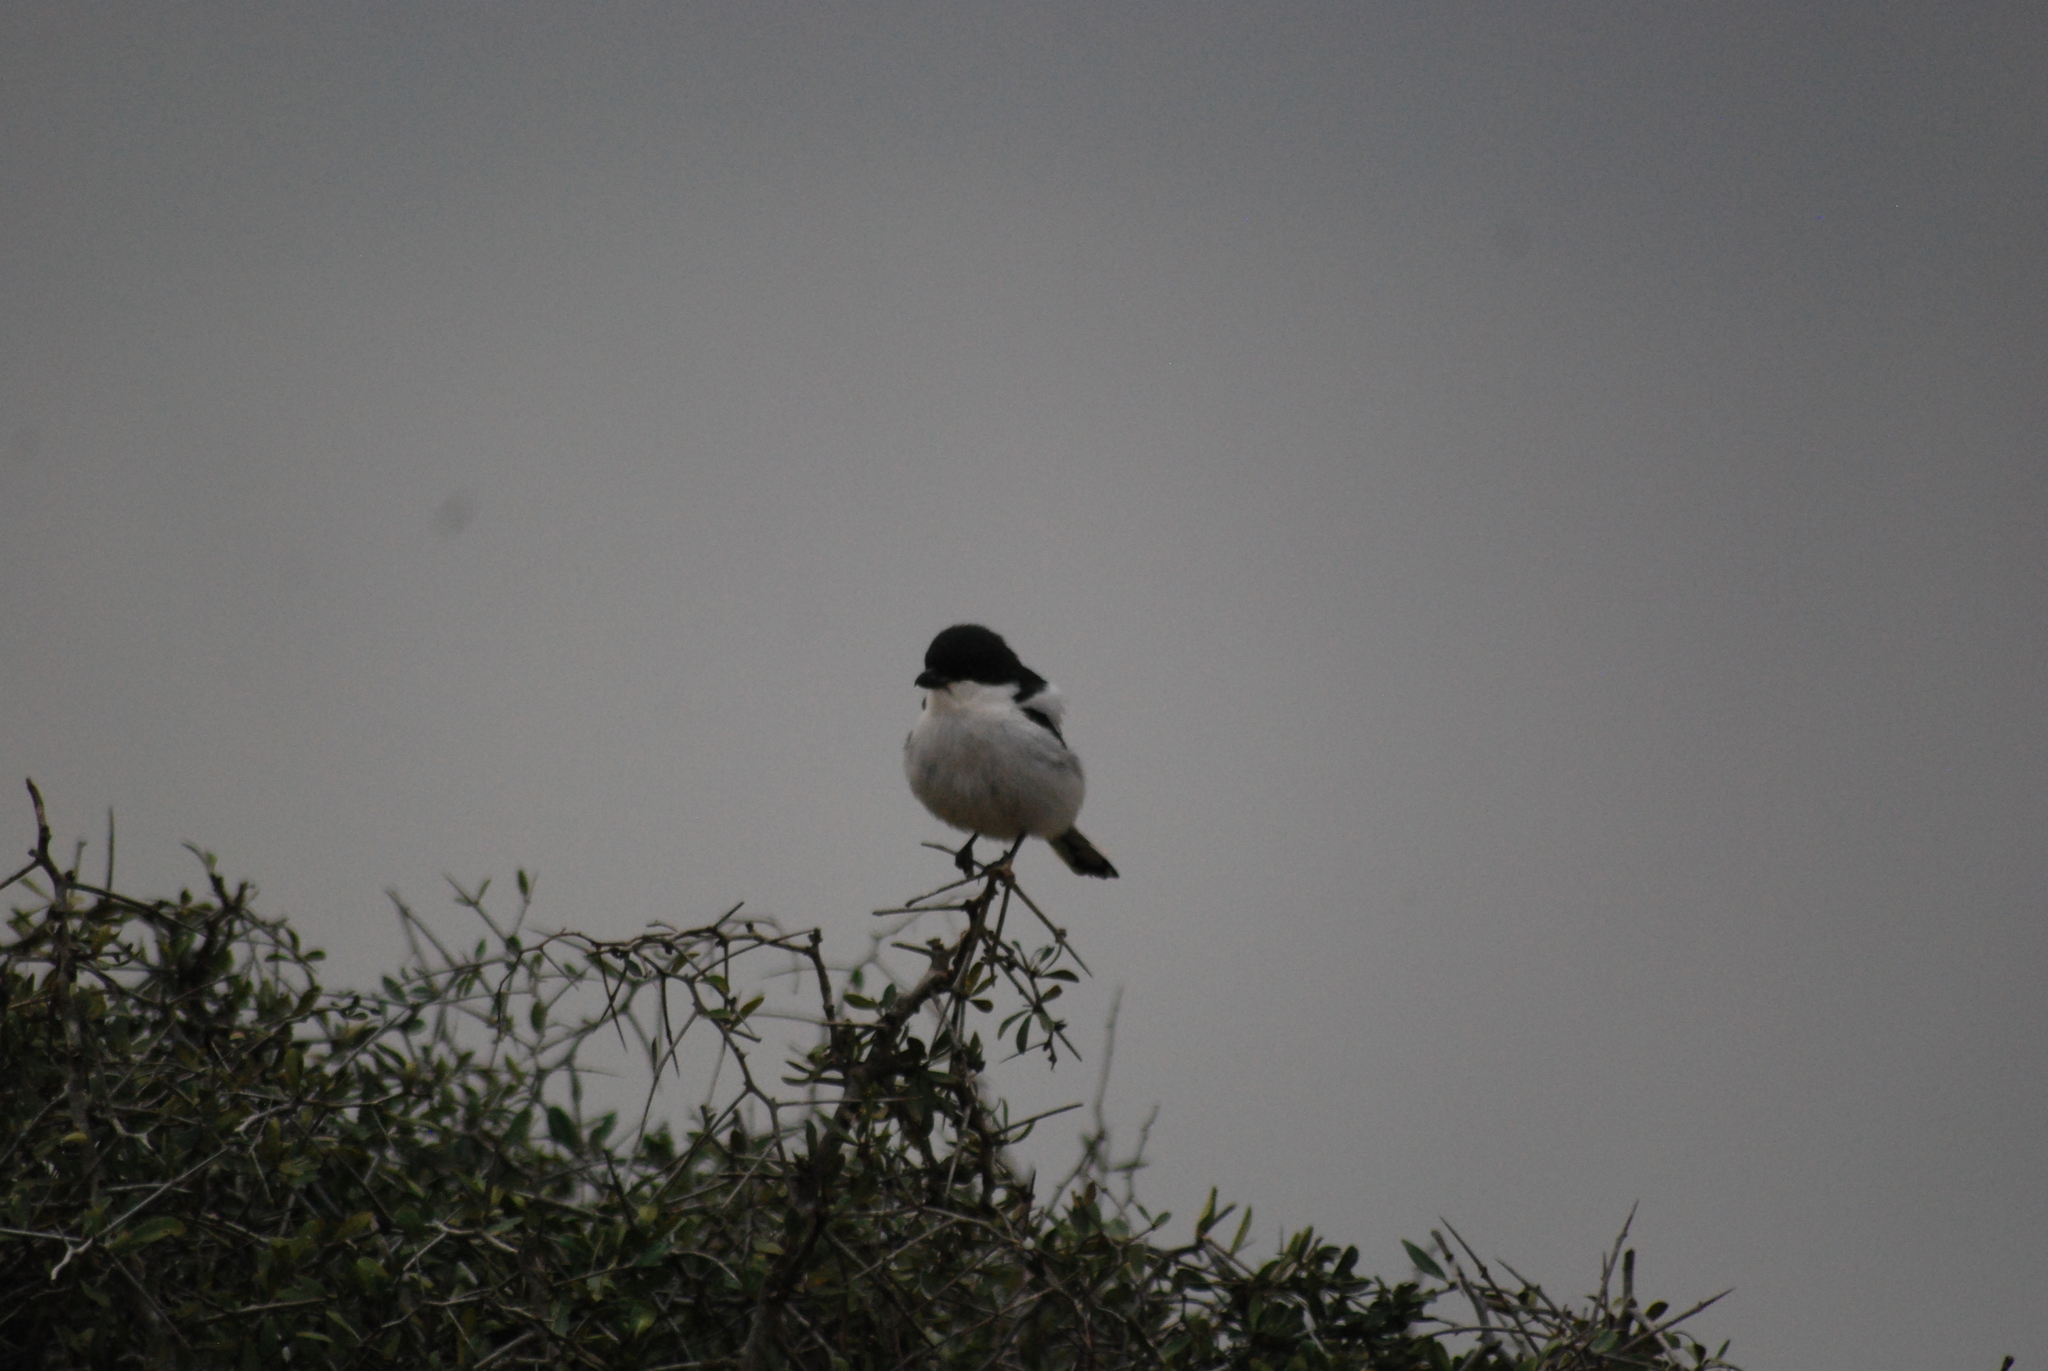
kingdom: Animalia
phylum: Chordata
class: Aves
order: Passeriformes
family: Laniidae
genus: Lanius
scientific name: Lanius collaris
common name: Southern fiscal
